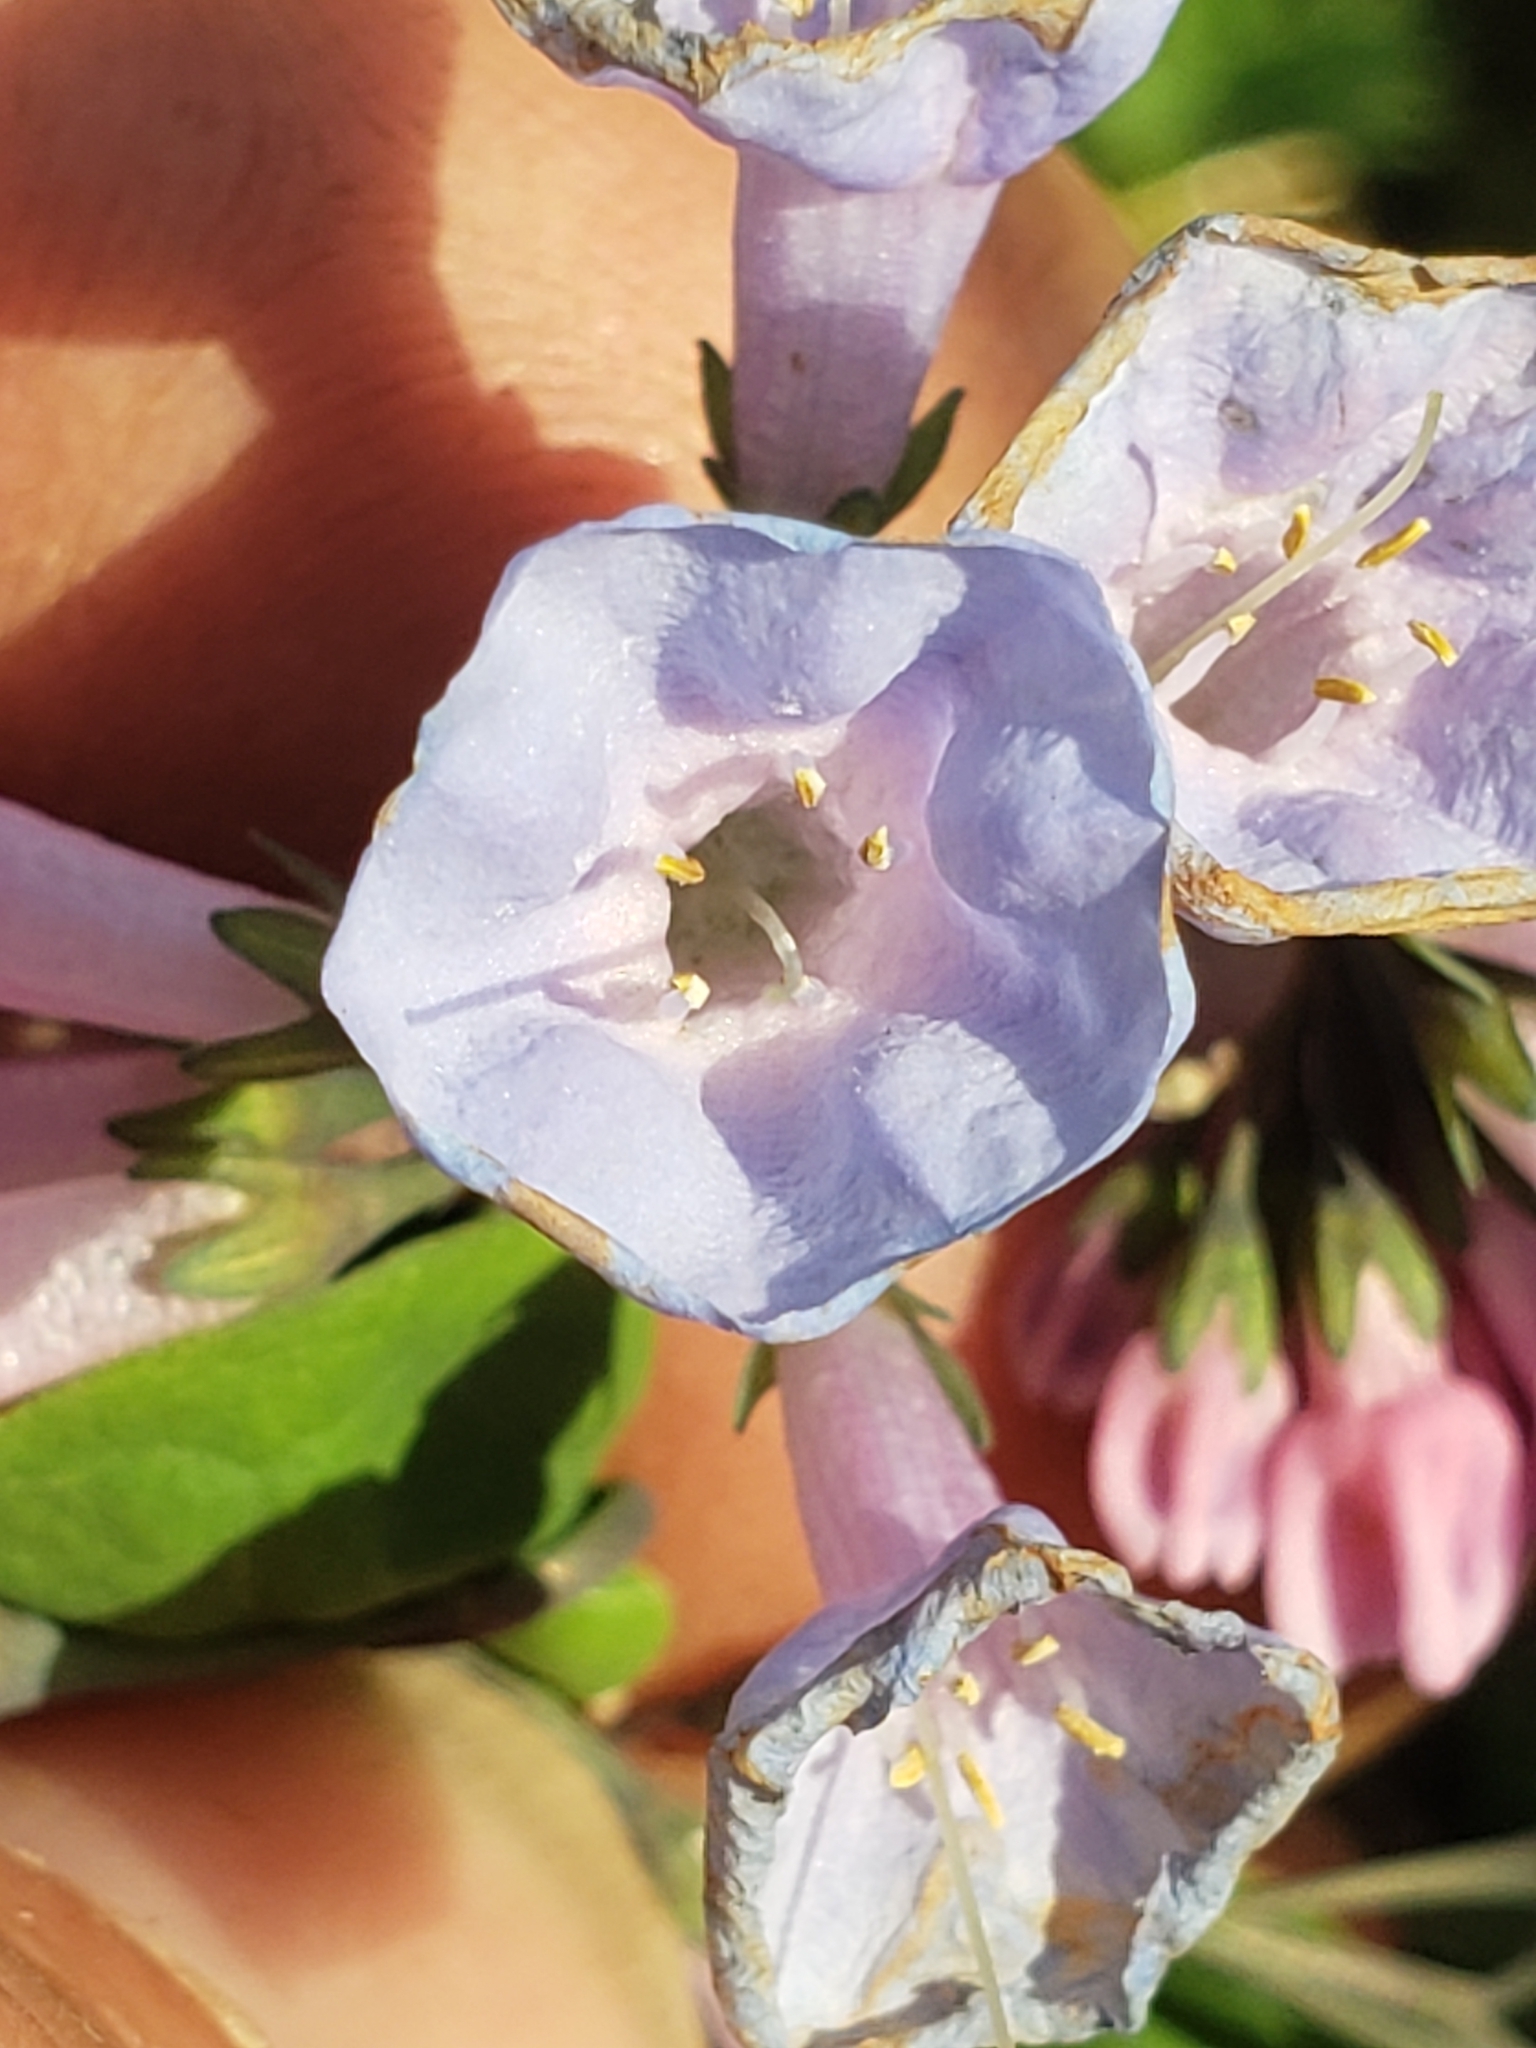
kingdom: Plantae
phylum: Tracheophyta
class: Magnoliopsida
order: Boraginales
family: Boraginaceae
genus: Mertensia
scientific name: Mertensia virginica
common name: Virginia bluebells
